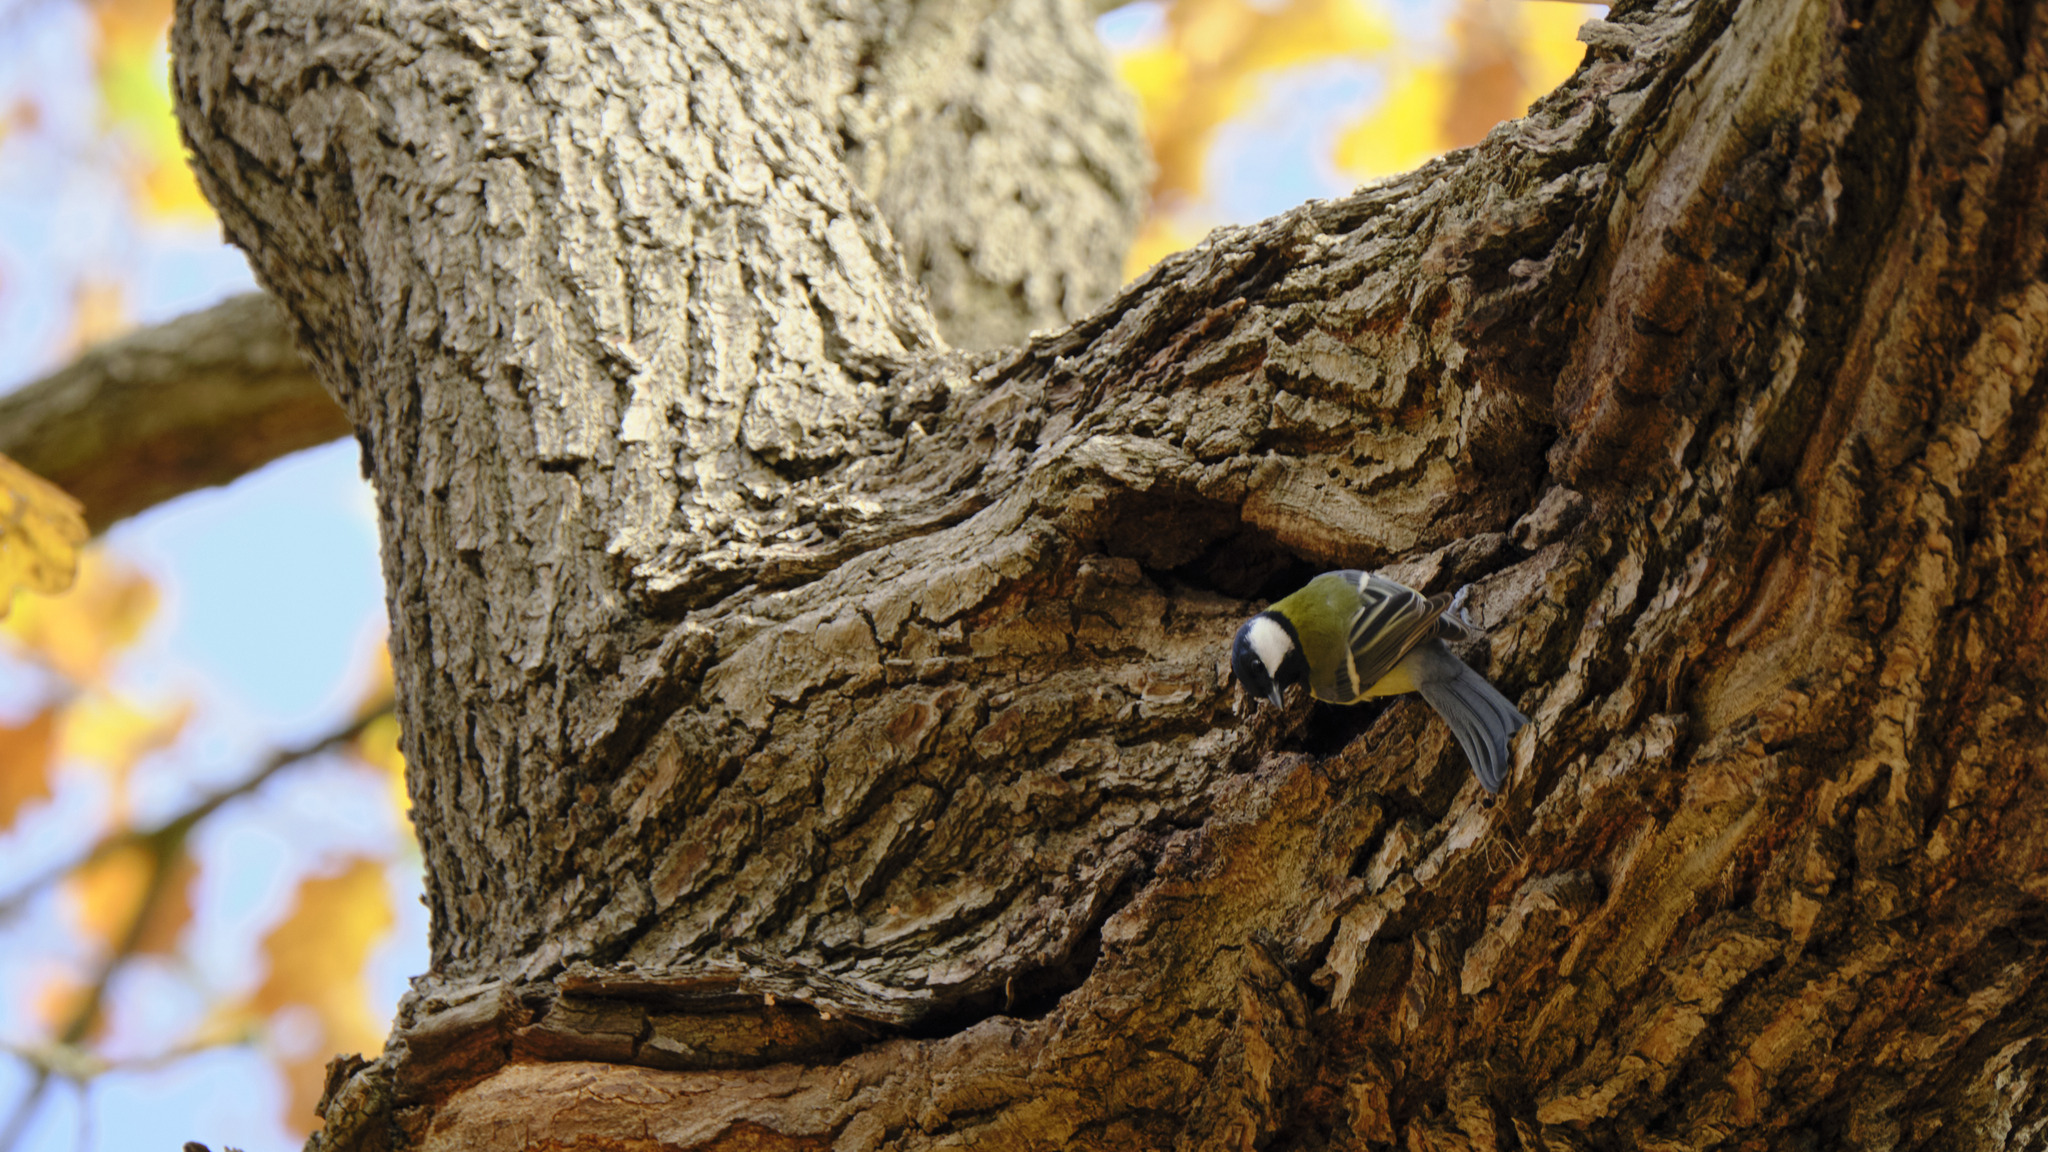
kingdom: Animalia
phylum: Chordata
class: Aves
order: Passeriformes
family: Paridae
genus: Parus
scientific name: Parus major
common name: Great tit
